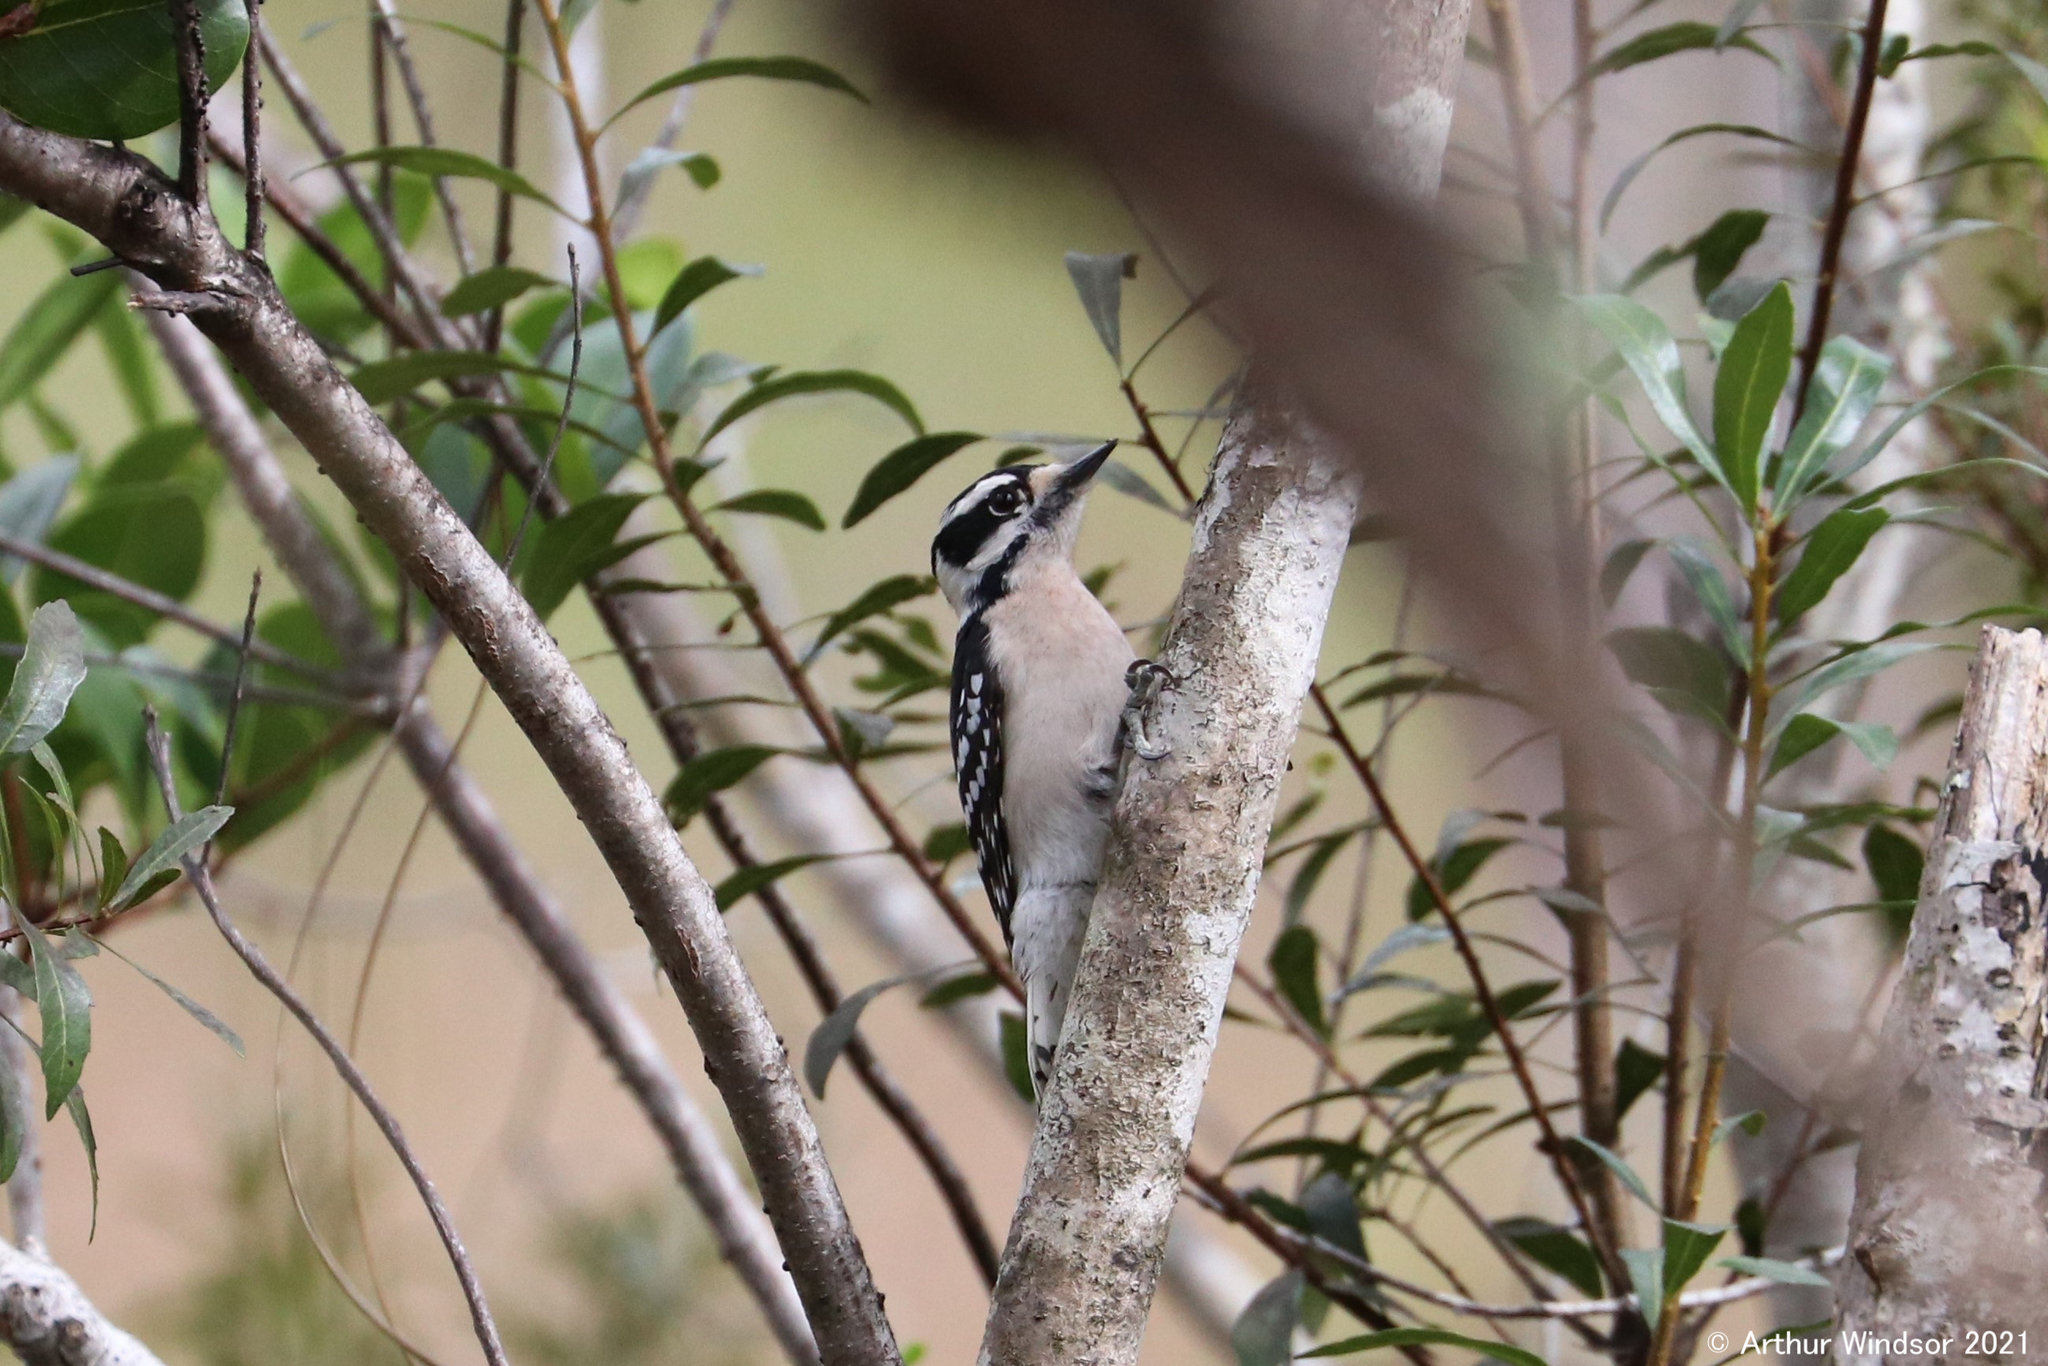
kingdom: Animalia
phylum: Chordata
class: Aves
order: Piciformes
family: Picidae
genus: Dryobates
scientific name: Dryobates pubescens
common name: Downy woodpecker
